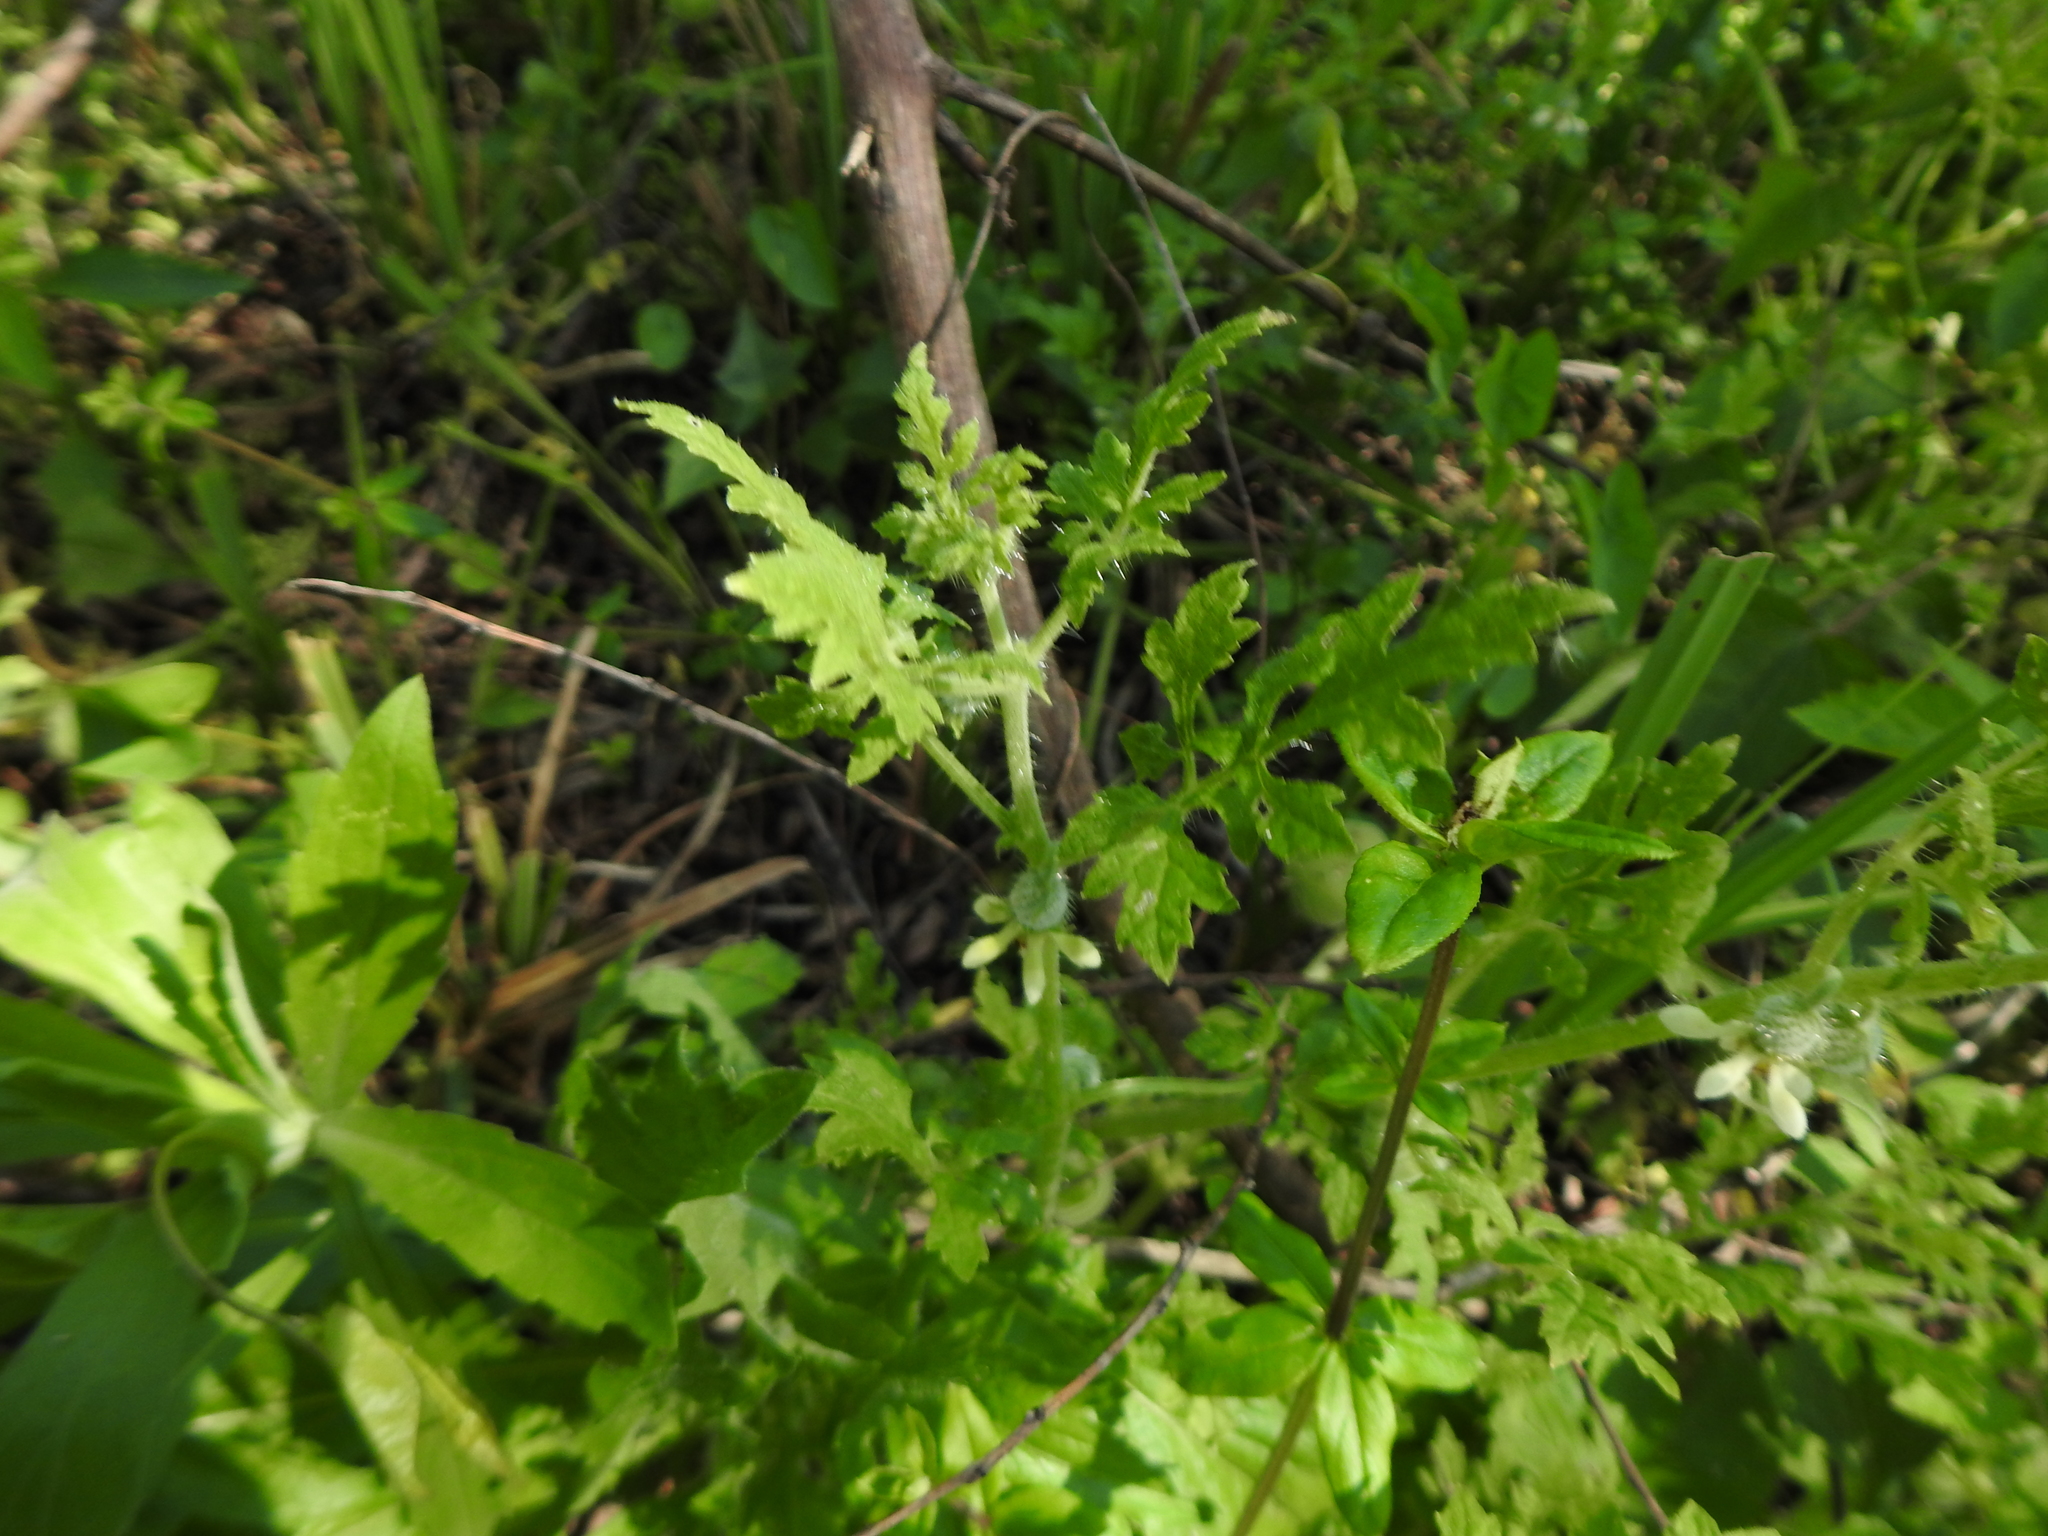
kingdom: Plantae
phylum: Tracheophyta
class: Magnoliopsida
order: Cornales
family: Loasaceae
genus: Blumenbachia
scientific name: Blumenbachia latifolia
